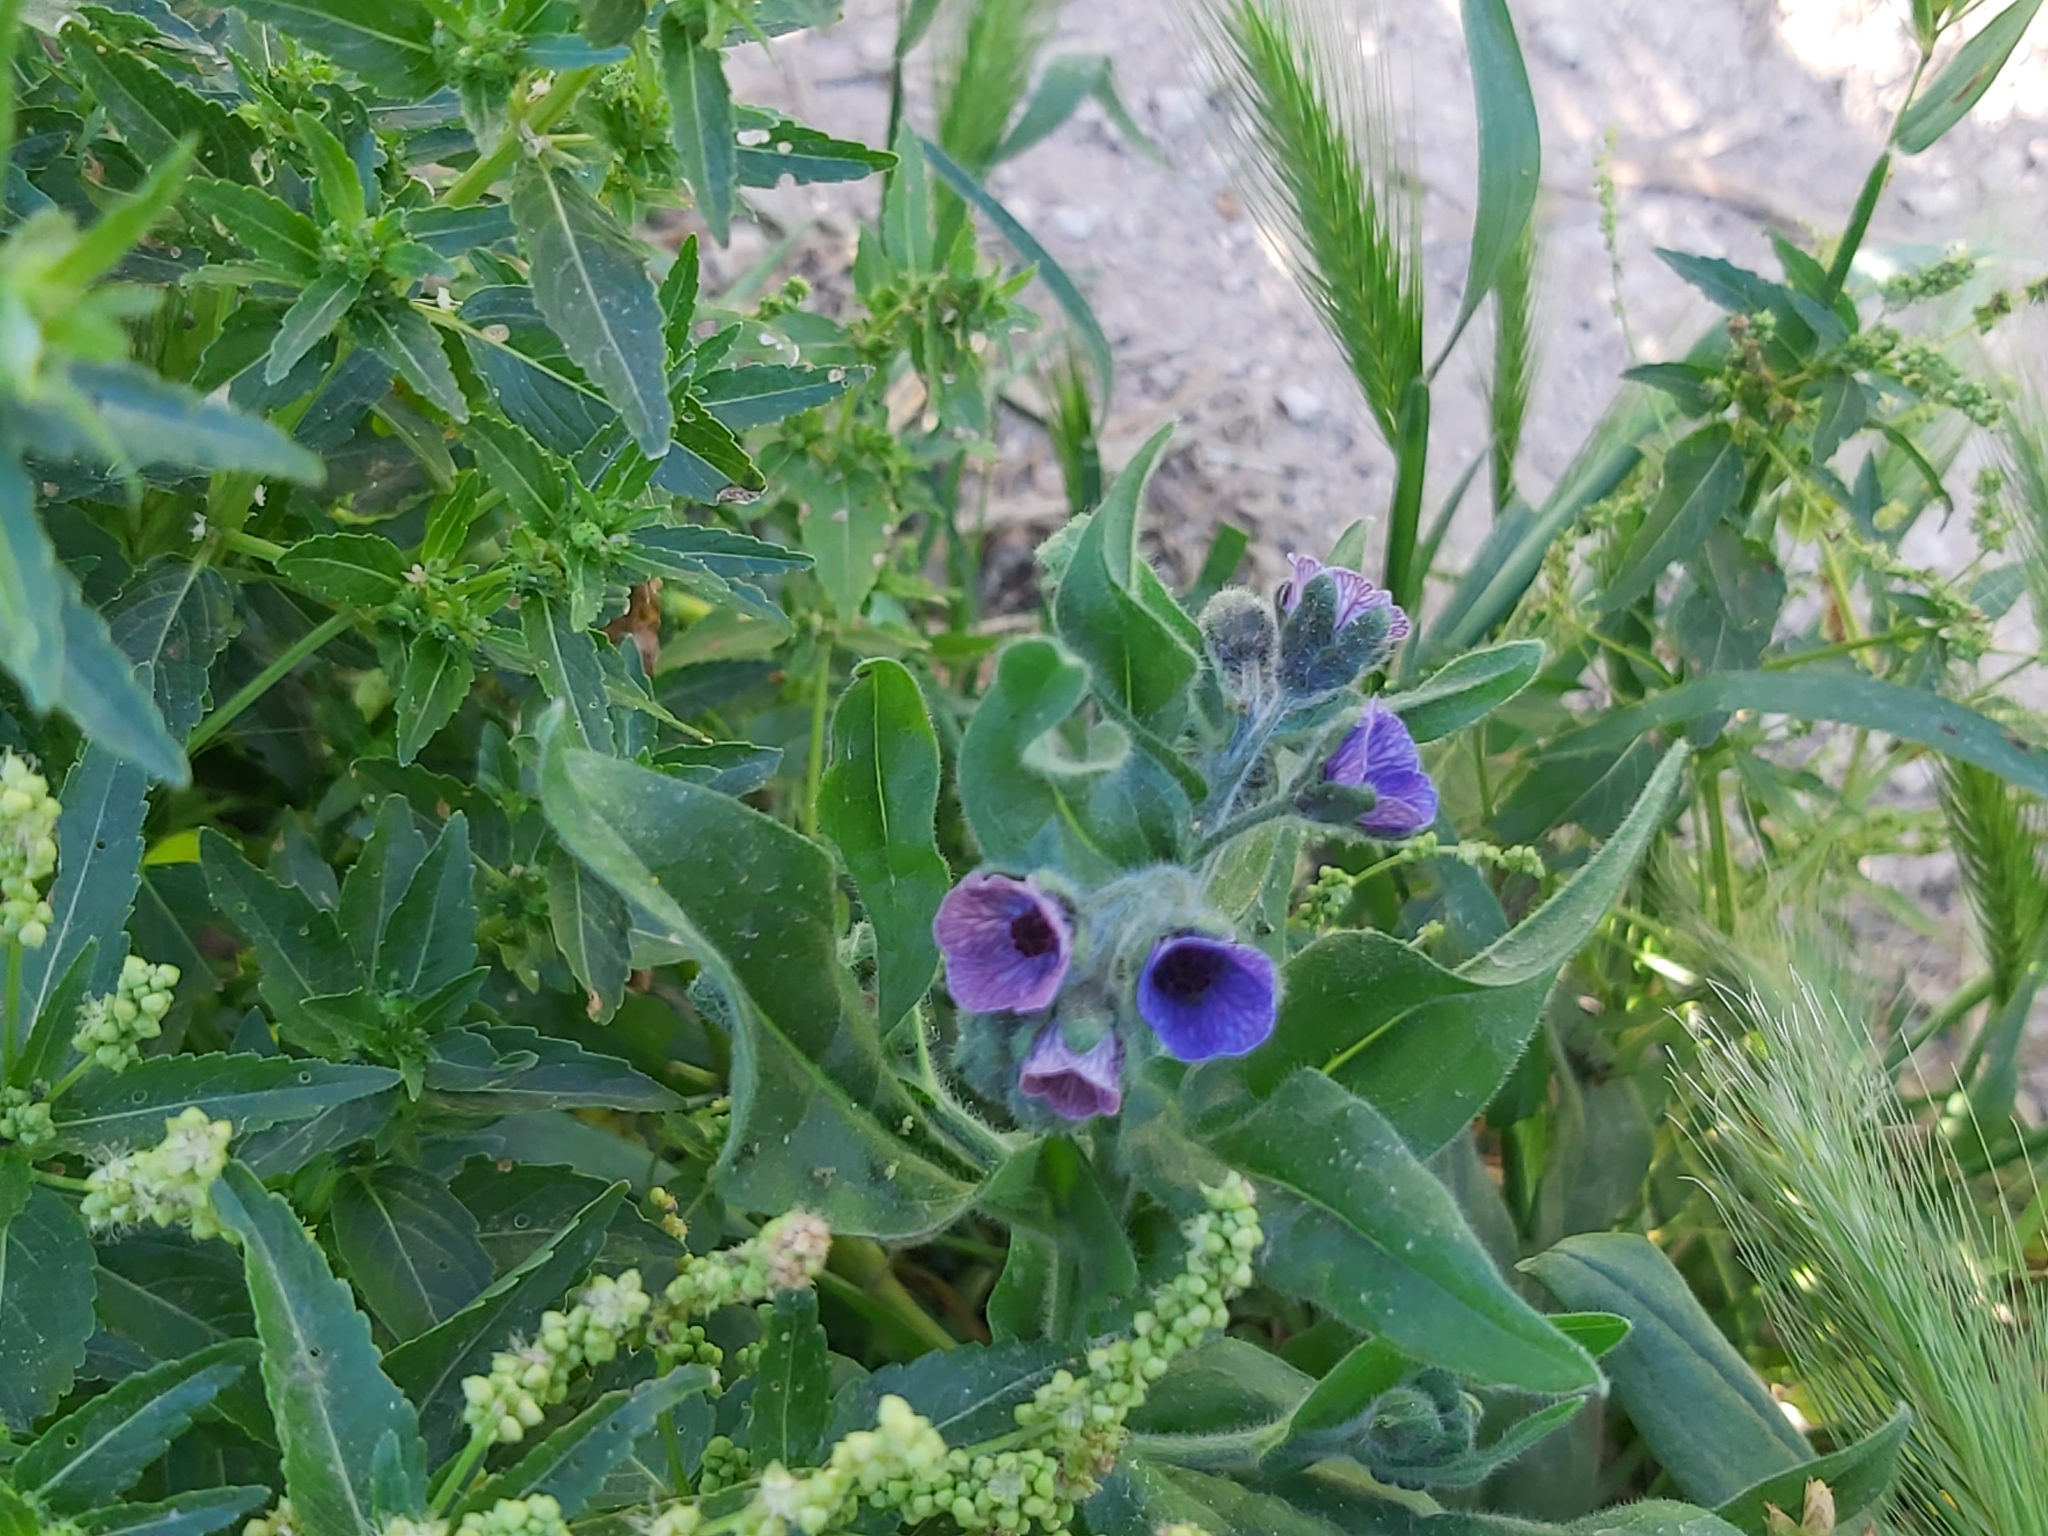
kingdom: Plantae
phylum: Tracheophyta
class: Magnoliopsida
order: Boraginales
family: Boraginaceae
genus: Cynoglossum
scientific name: Cynoglossum creticum
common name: Blue hound's tongue
